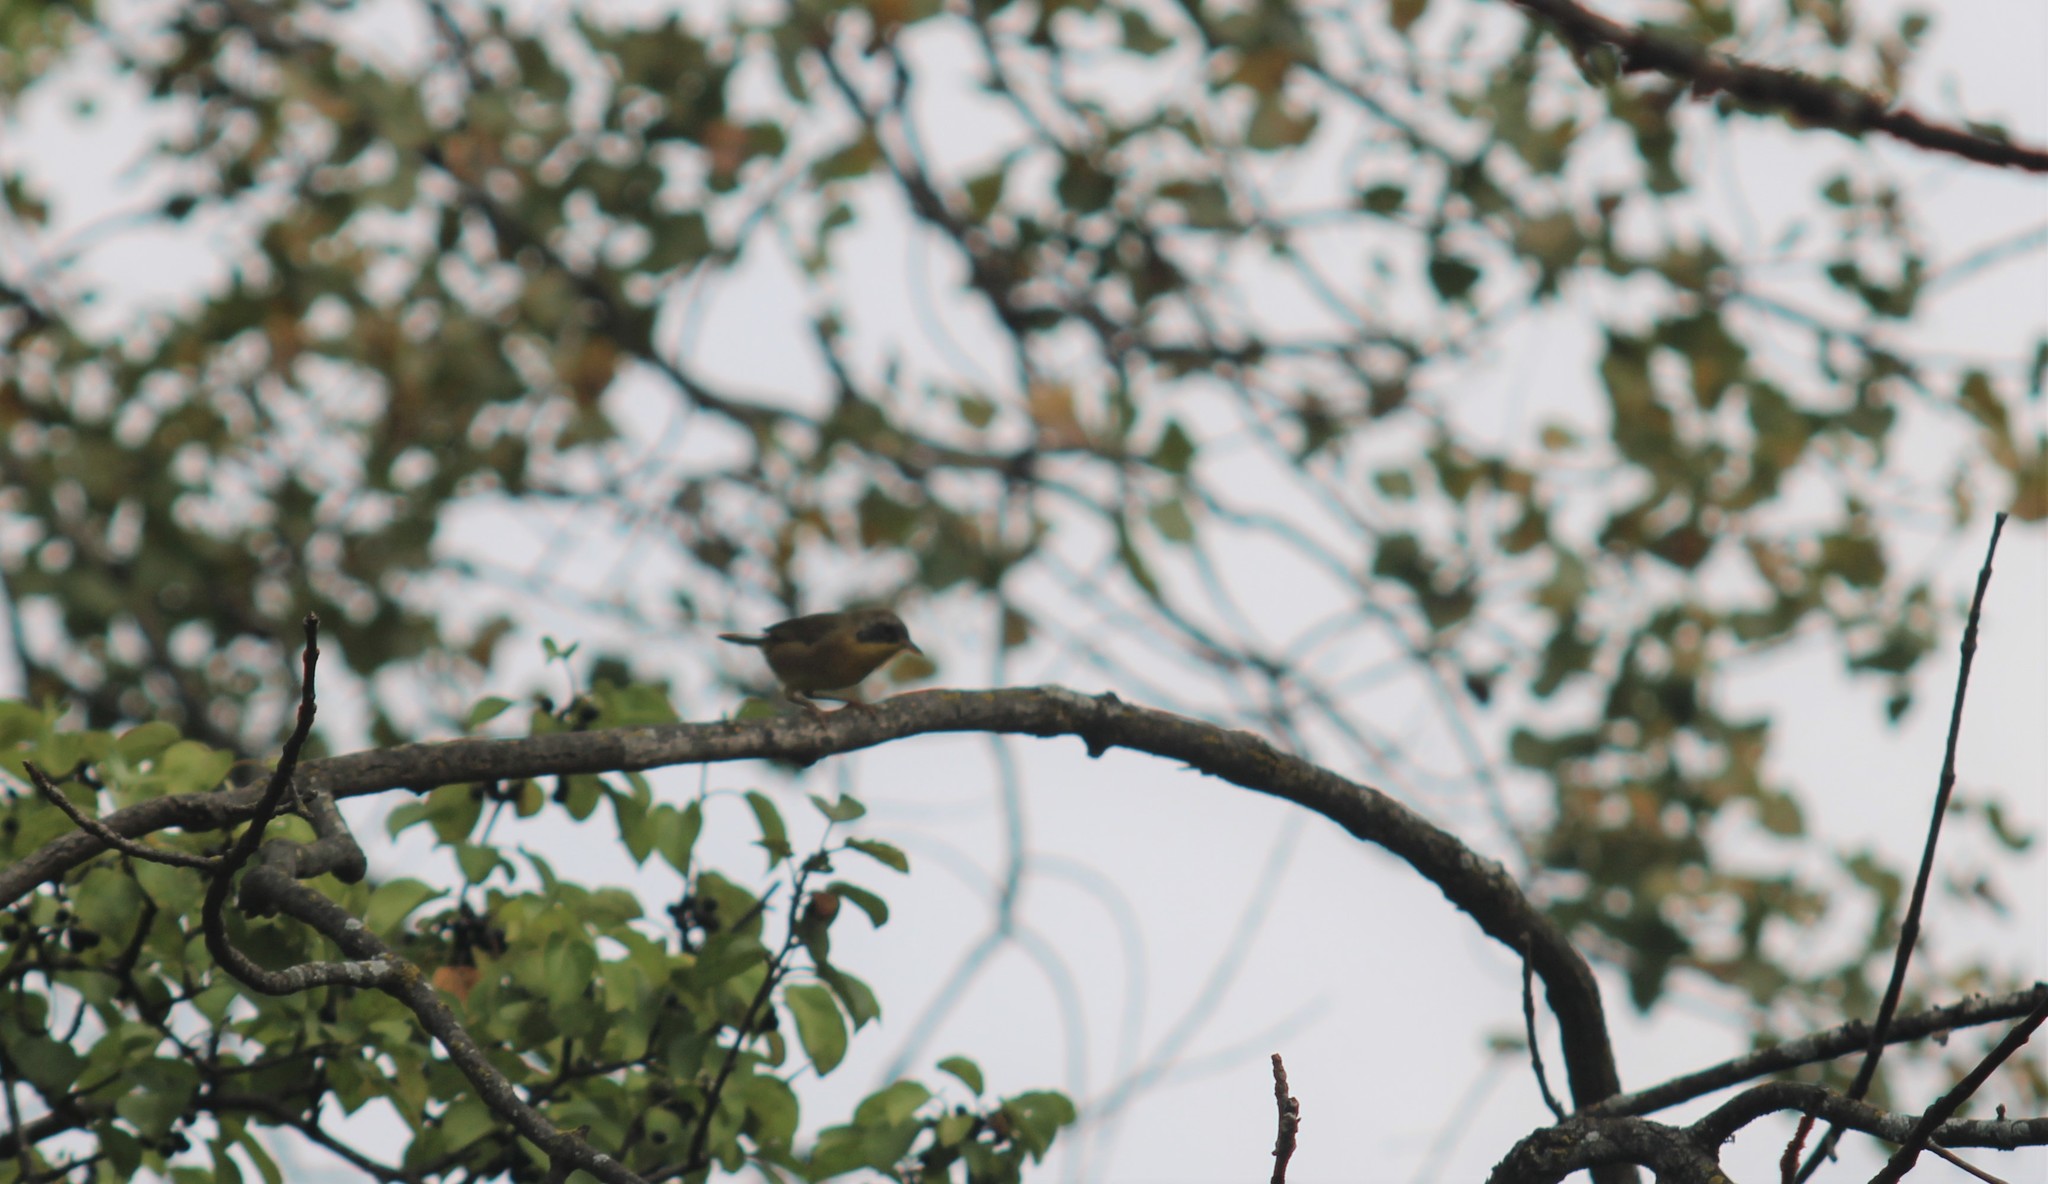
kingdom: Animalia
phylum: Chordata
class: Aves
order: Passeriformes
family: Parulidae
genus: Geothlypis
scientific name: Geothlypis trichas
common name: Common yellowthroat
